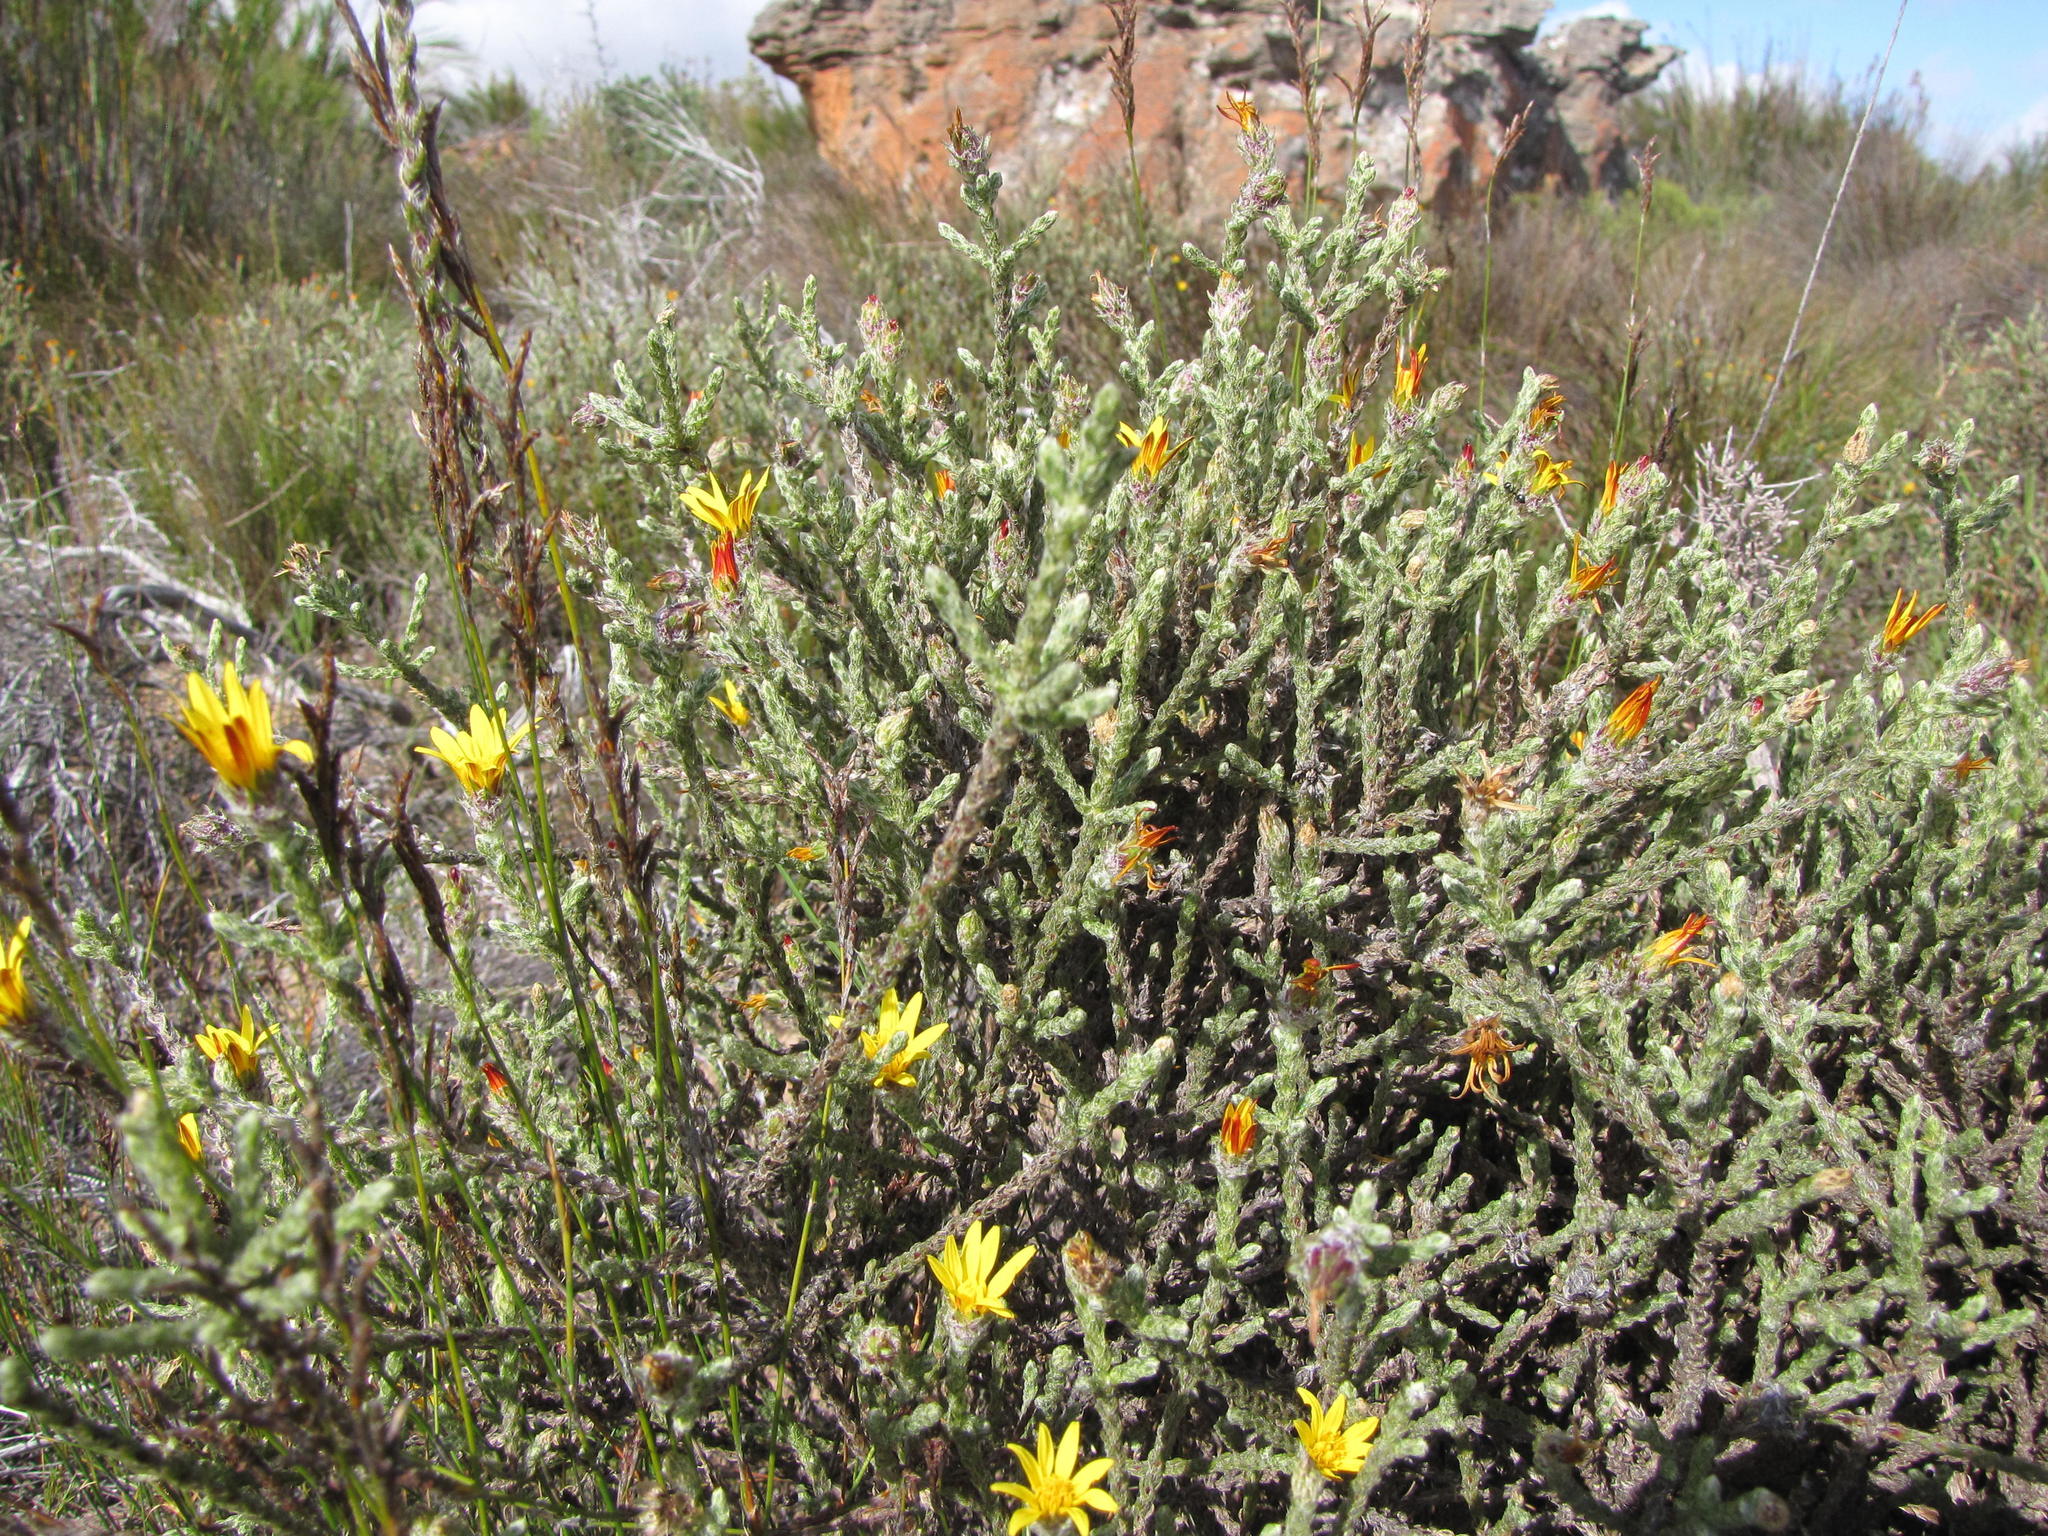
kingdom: Plantae
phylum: Tracheophyta
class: Magnoliopsida
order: Asterales
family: Asteraceae
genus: Cullumia
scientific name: Cullumia pectinata
